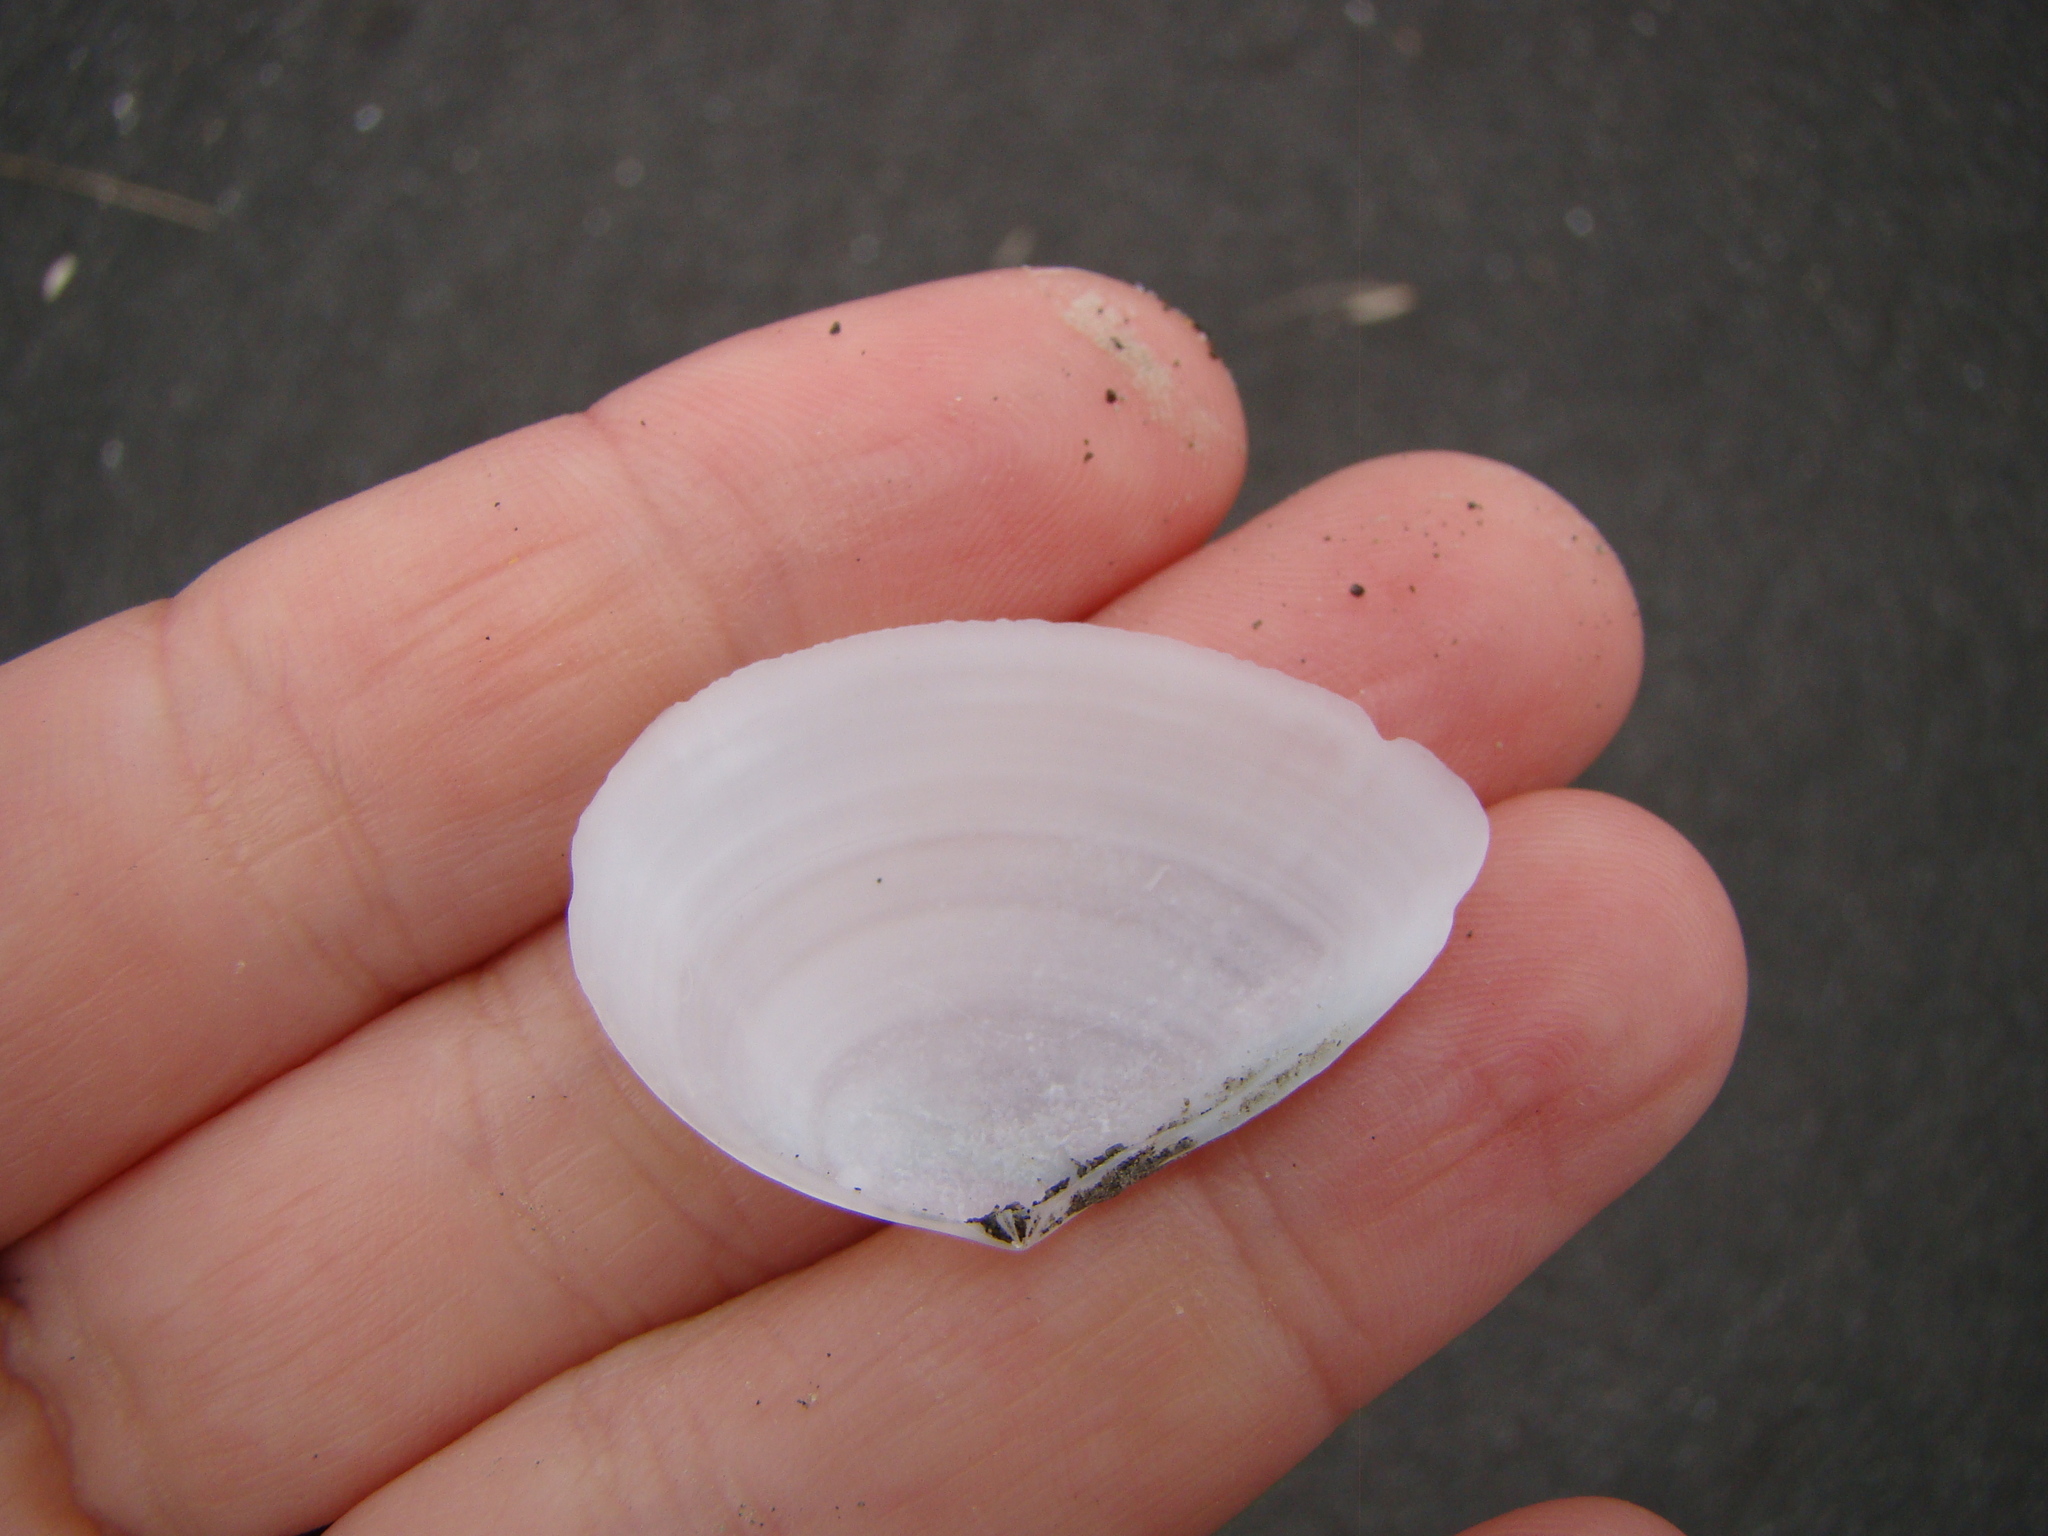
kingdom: Animalia
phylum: Mollusca
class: Bivalvia
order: Cardiida
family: Tellinidae
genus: Bartschicoma
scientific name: Bartschicoma gaimardi
